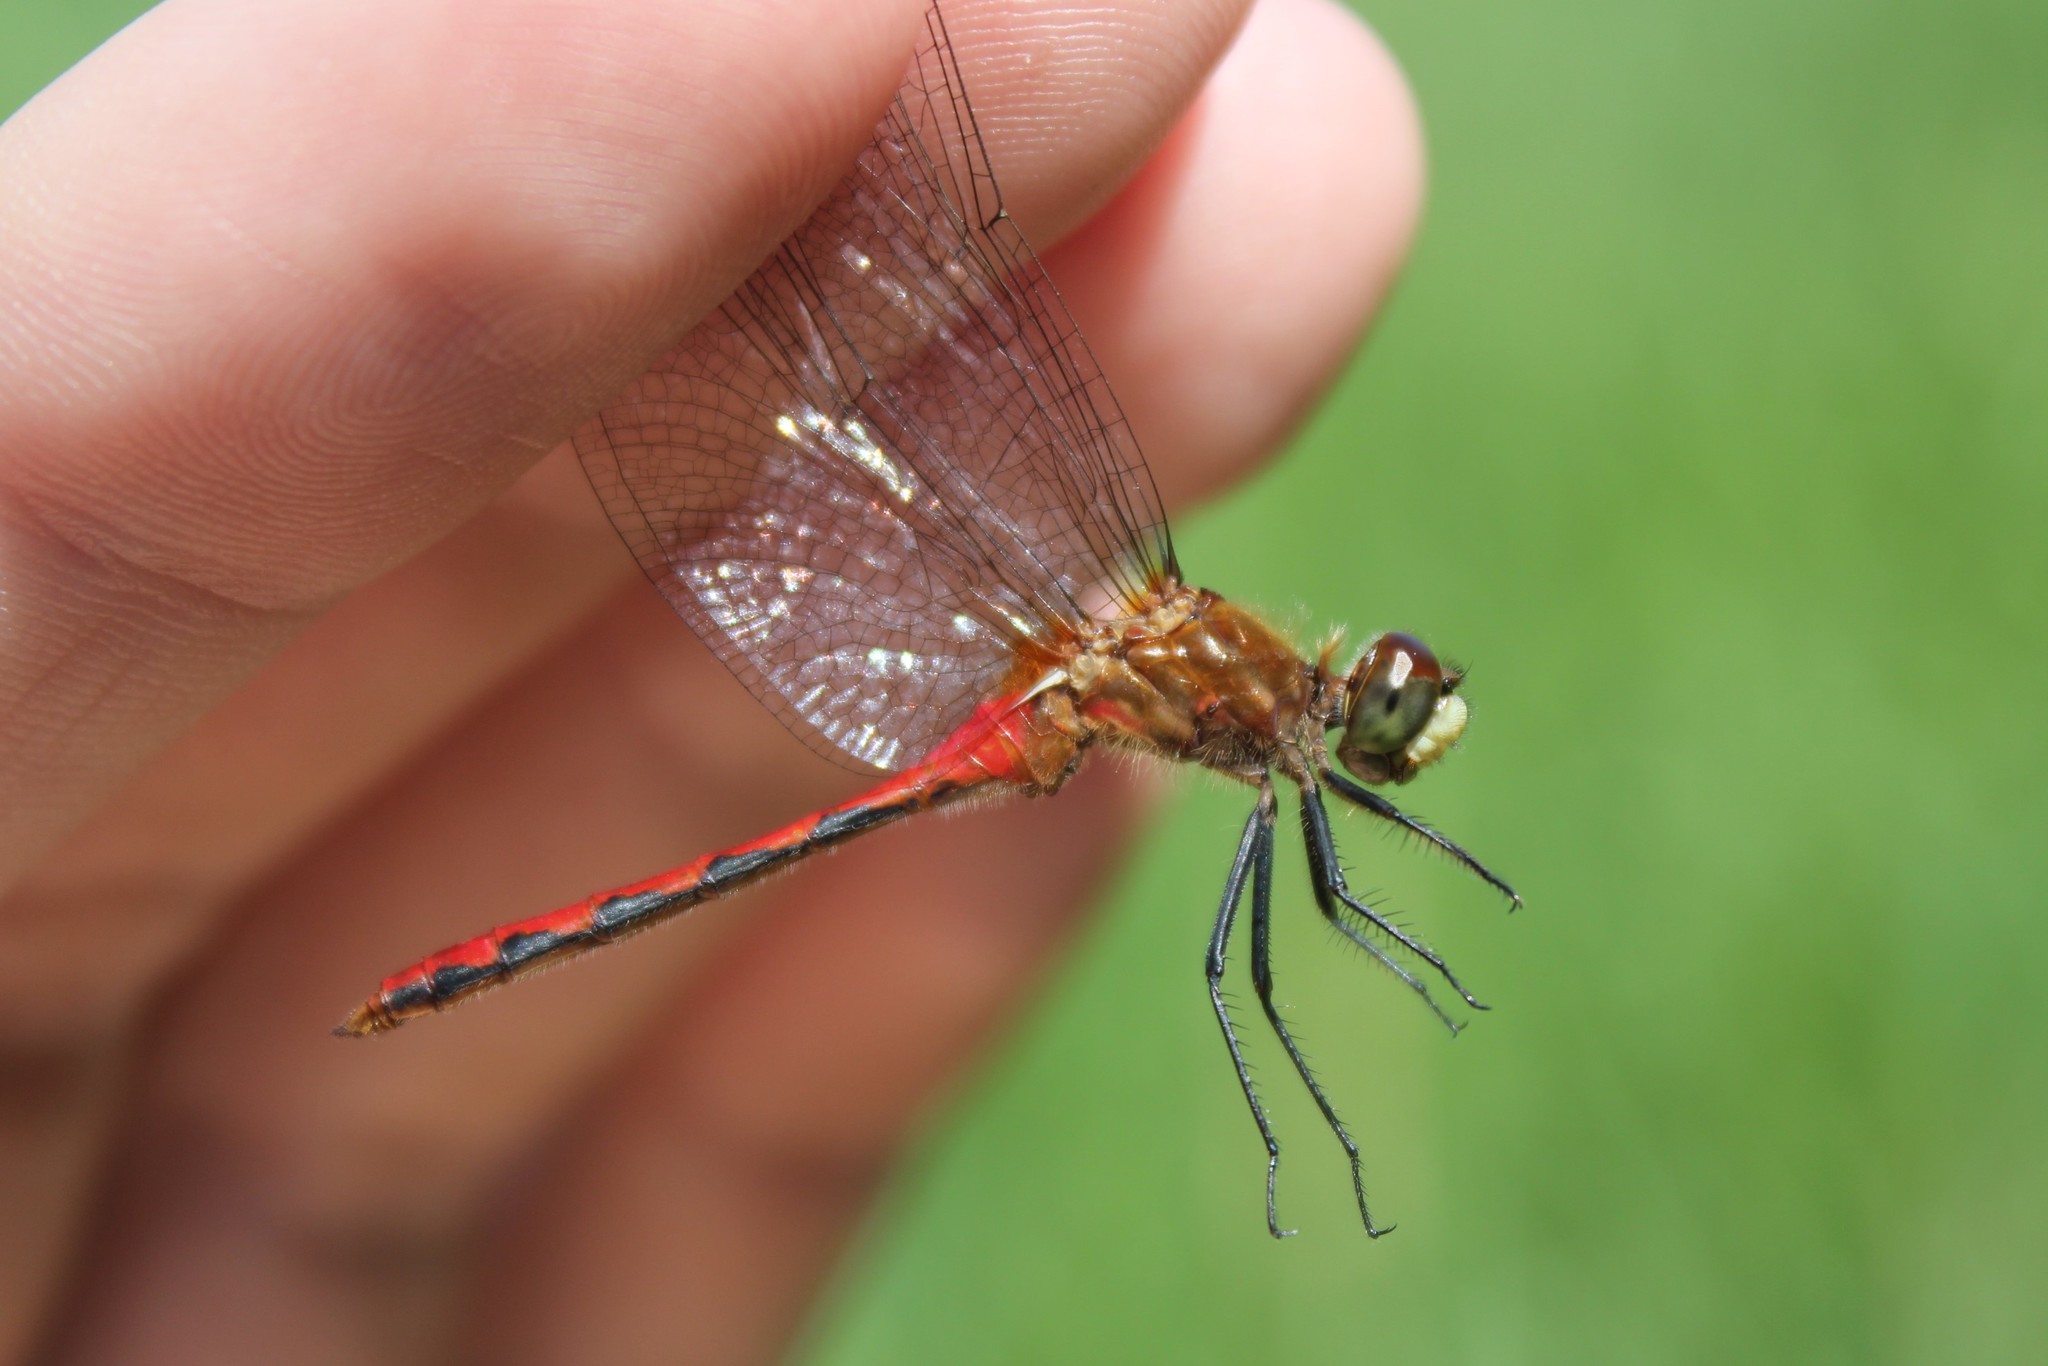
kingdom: Animalia
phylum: Arthropoda
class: Insecta
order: Odonata
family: Libellulidae
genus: Sympetrum
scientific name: Sympetrum obtrusum
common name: White-faced meadowhawk
